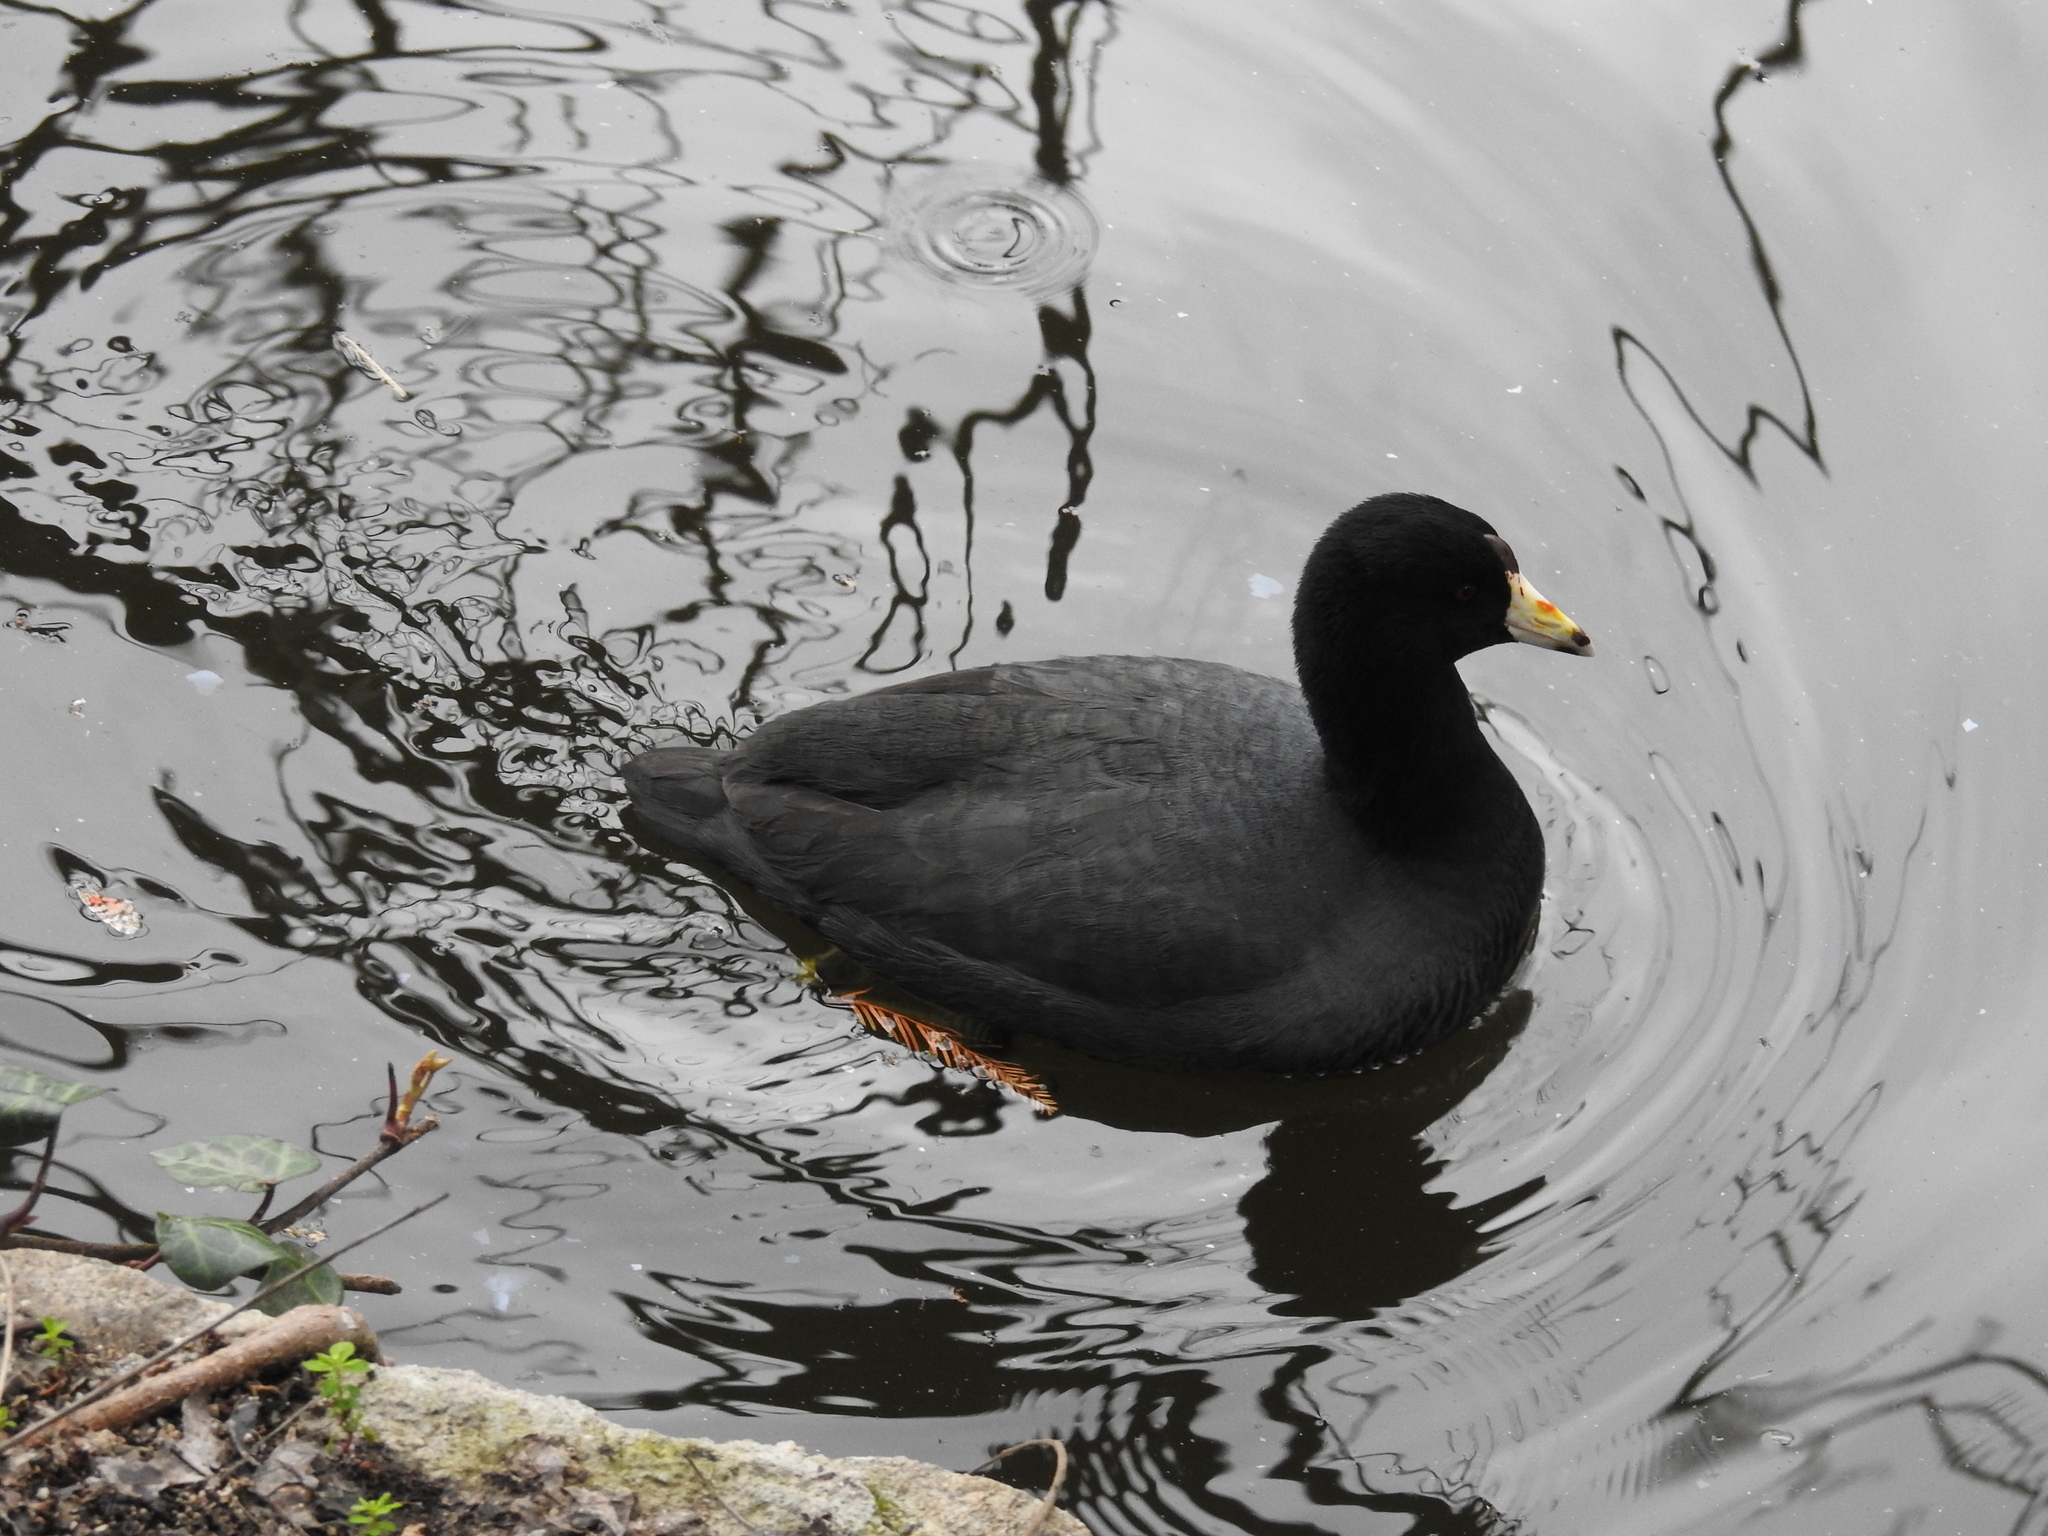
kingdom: Animalia
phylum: Chordata
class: Aves
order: Gruiformes
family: Rallidae
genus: Fulica
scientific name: Fulica americana
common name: American coot
